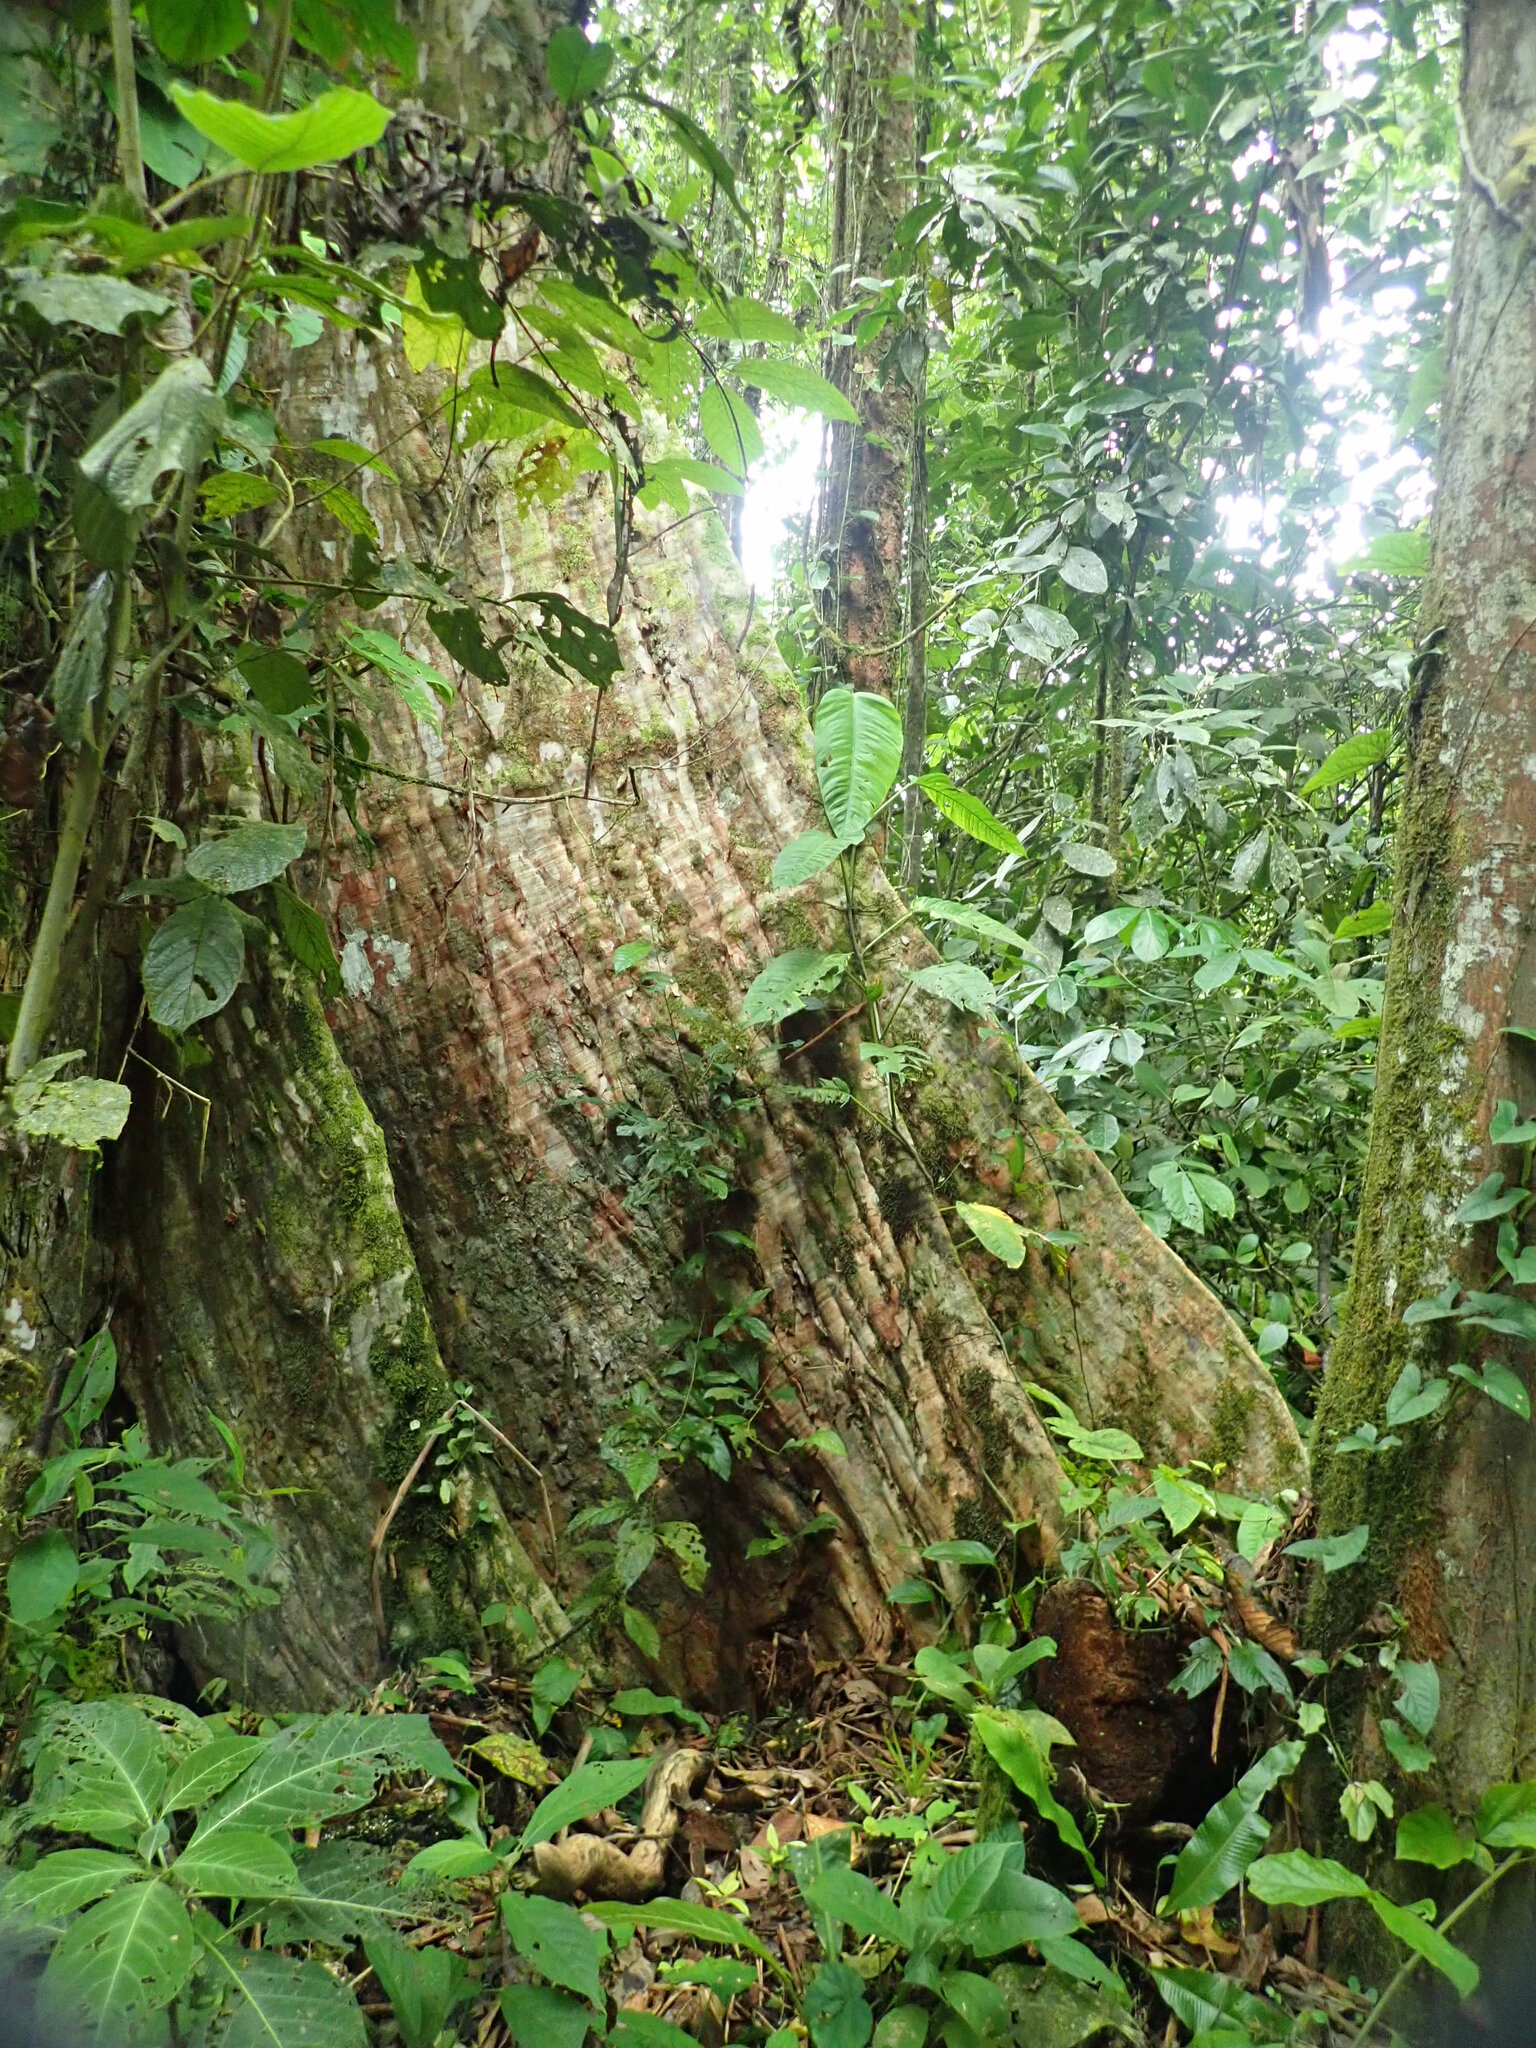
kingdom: Plantae
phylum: Tracheophyta
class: Magnoliopsida
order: Myrtales
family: Combretaceae
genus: Terminalia
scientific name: Terminalia oblonga
